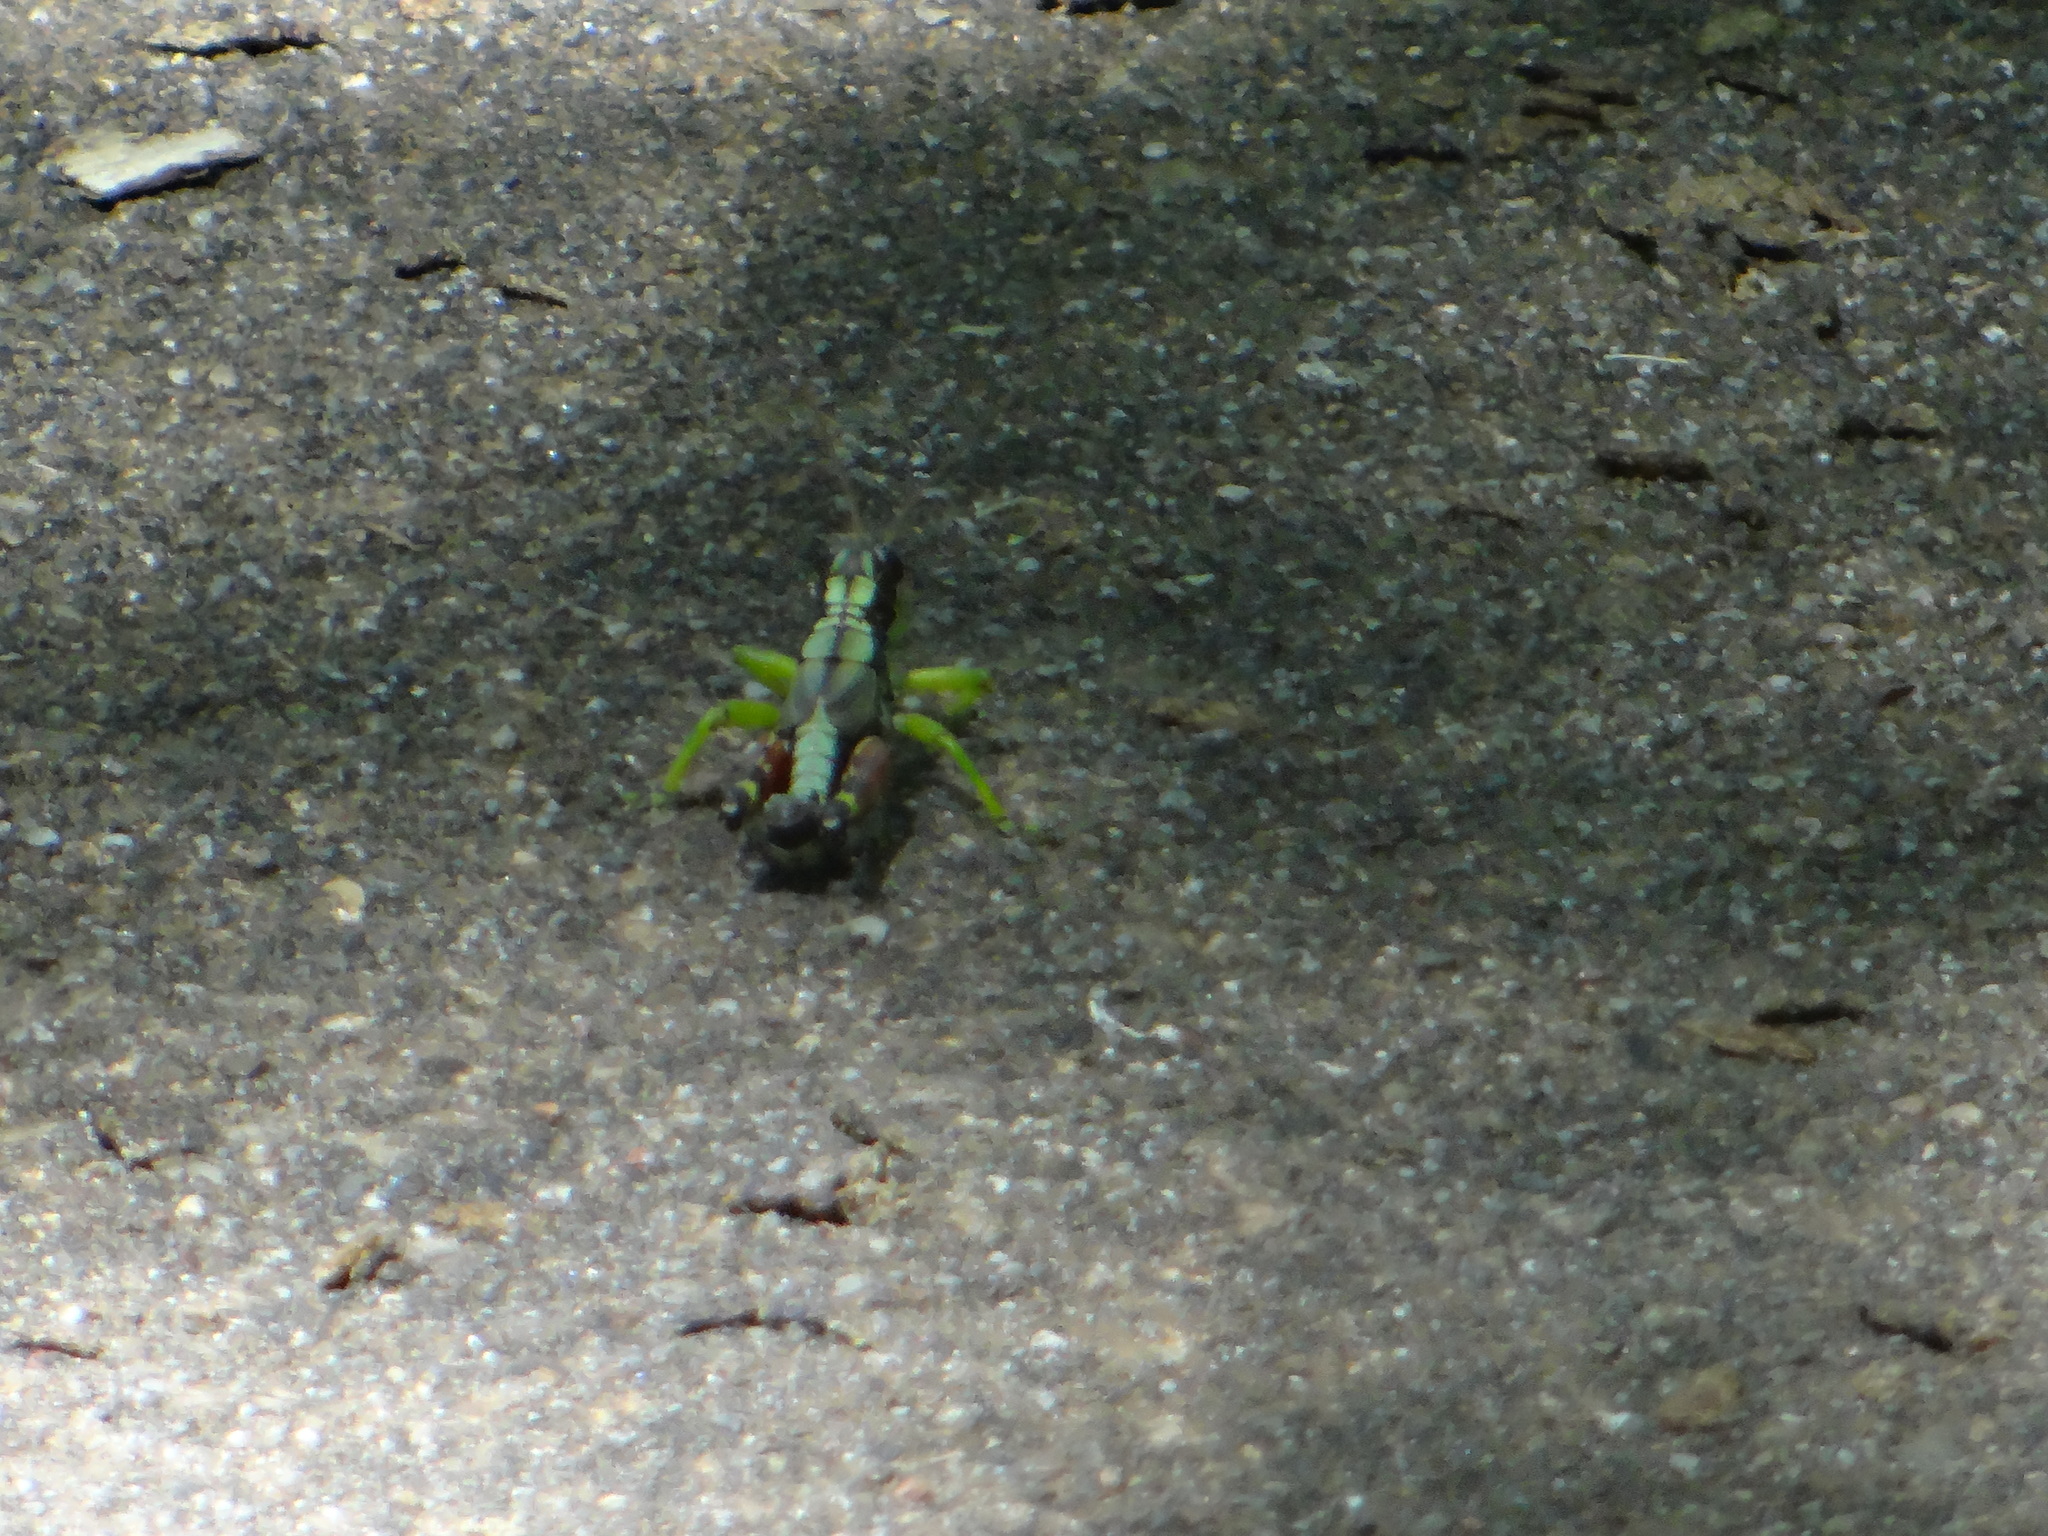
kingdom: Animalia
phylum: Arthropoda
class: Insecta
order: Orthoptera
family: Acrididae
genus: Dendrotettix
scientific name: Dendrotettix quercus
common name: Post oak grasshopper
